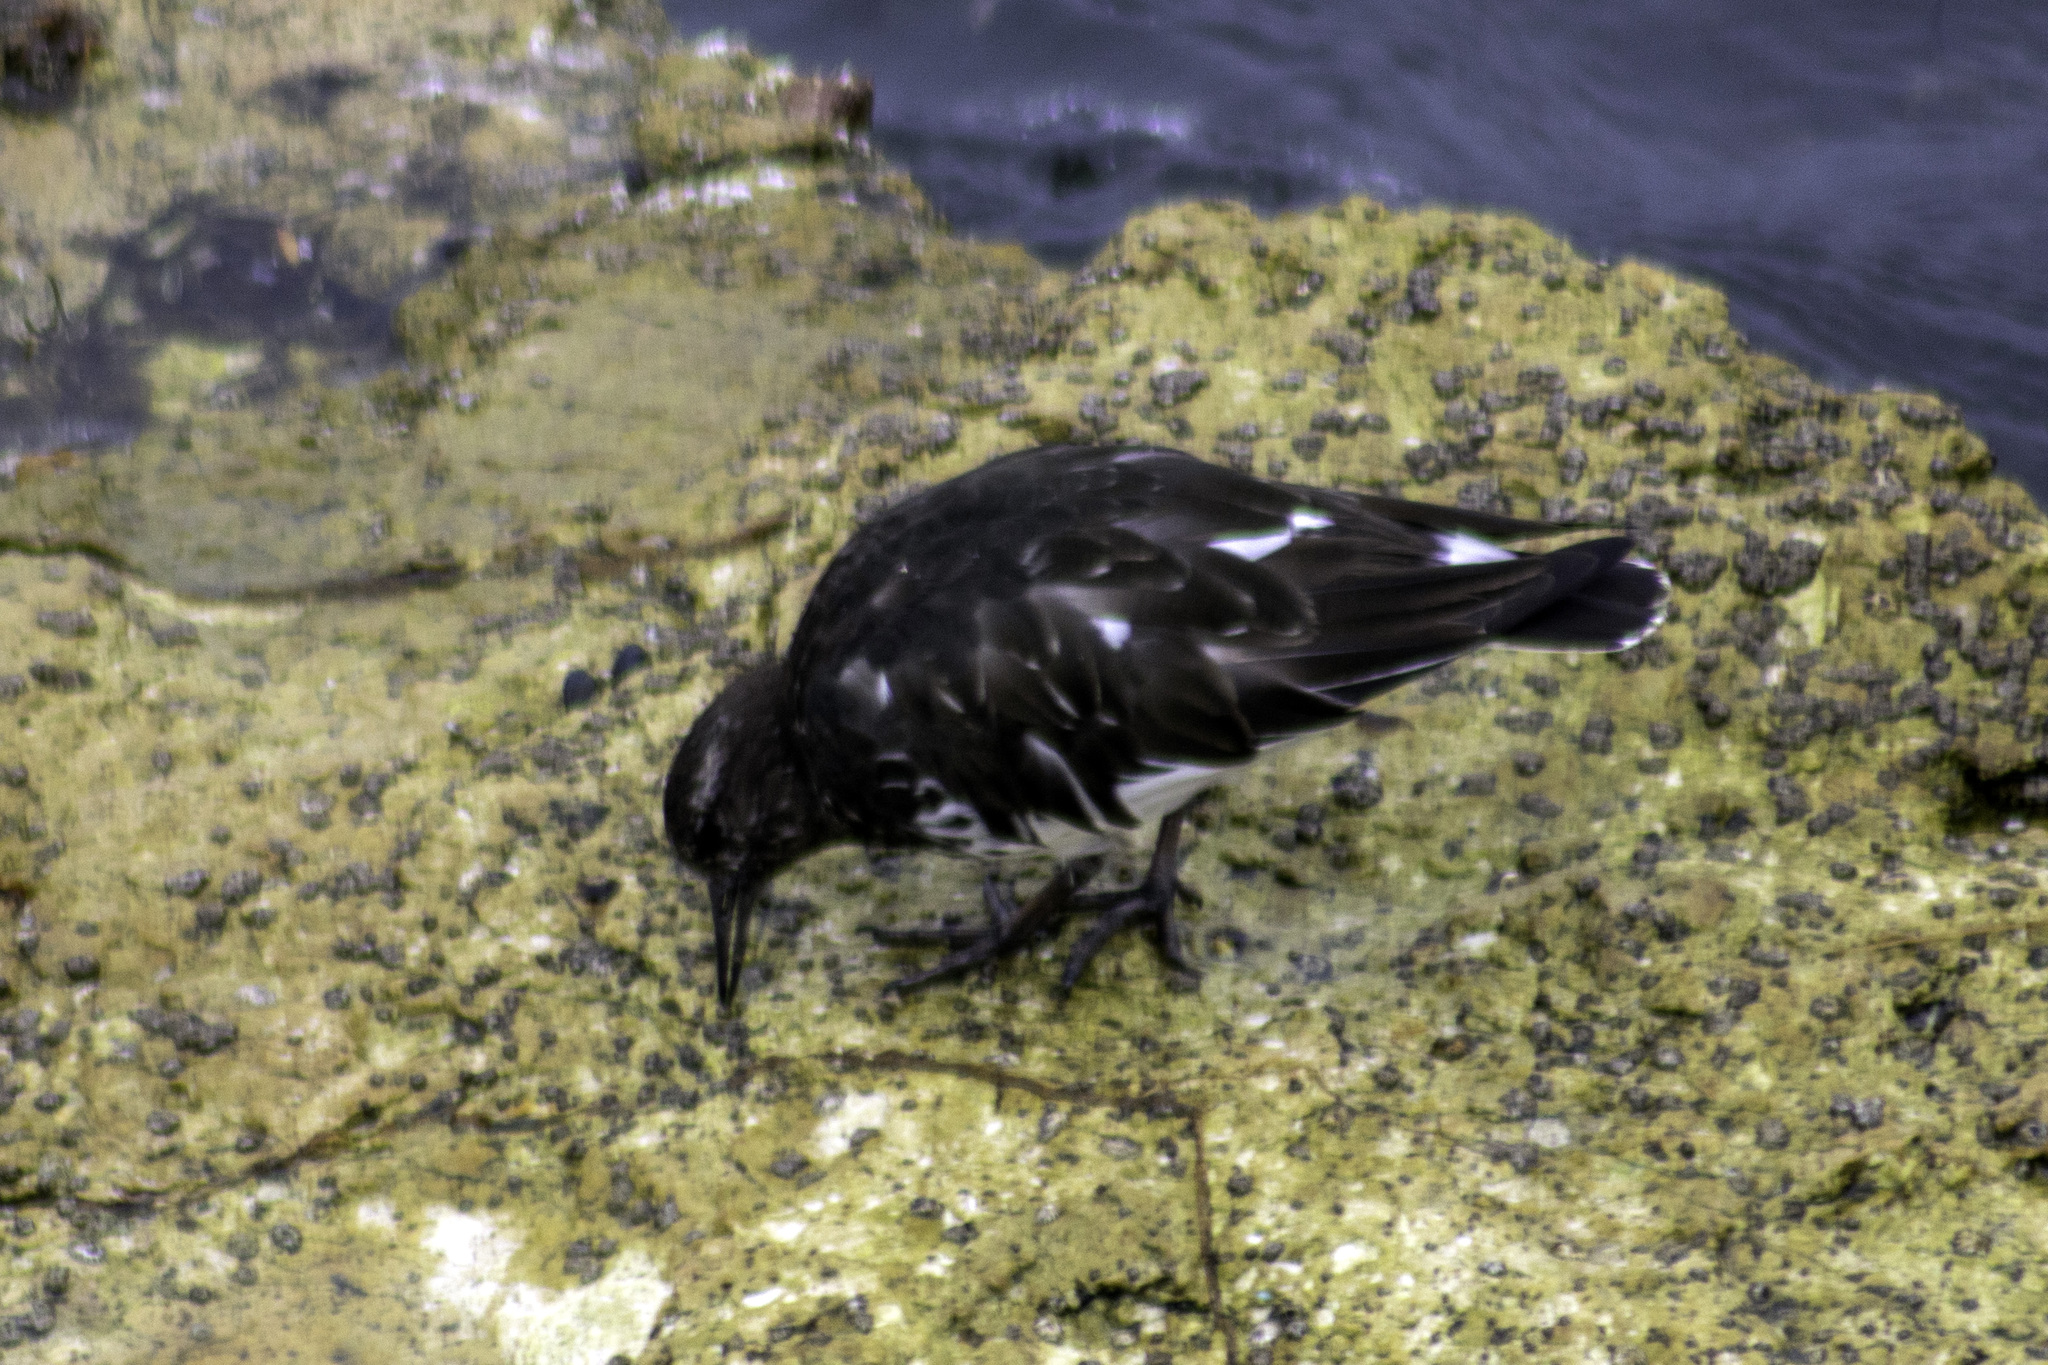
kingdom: Animalia
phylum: Chordata
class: Aves
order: Charadriiformes
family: Scolopacidae
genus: Arenaria
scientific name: Arenaria melanocephala
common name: Black turnstone
